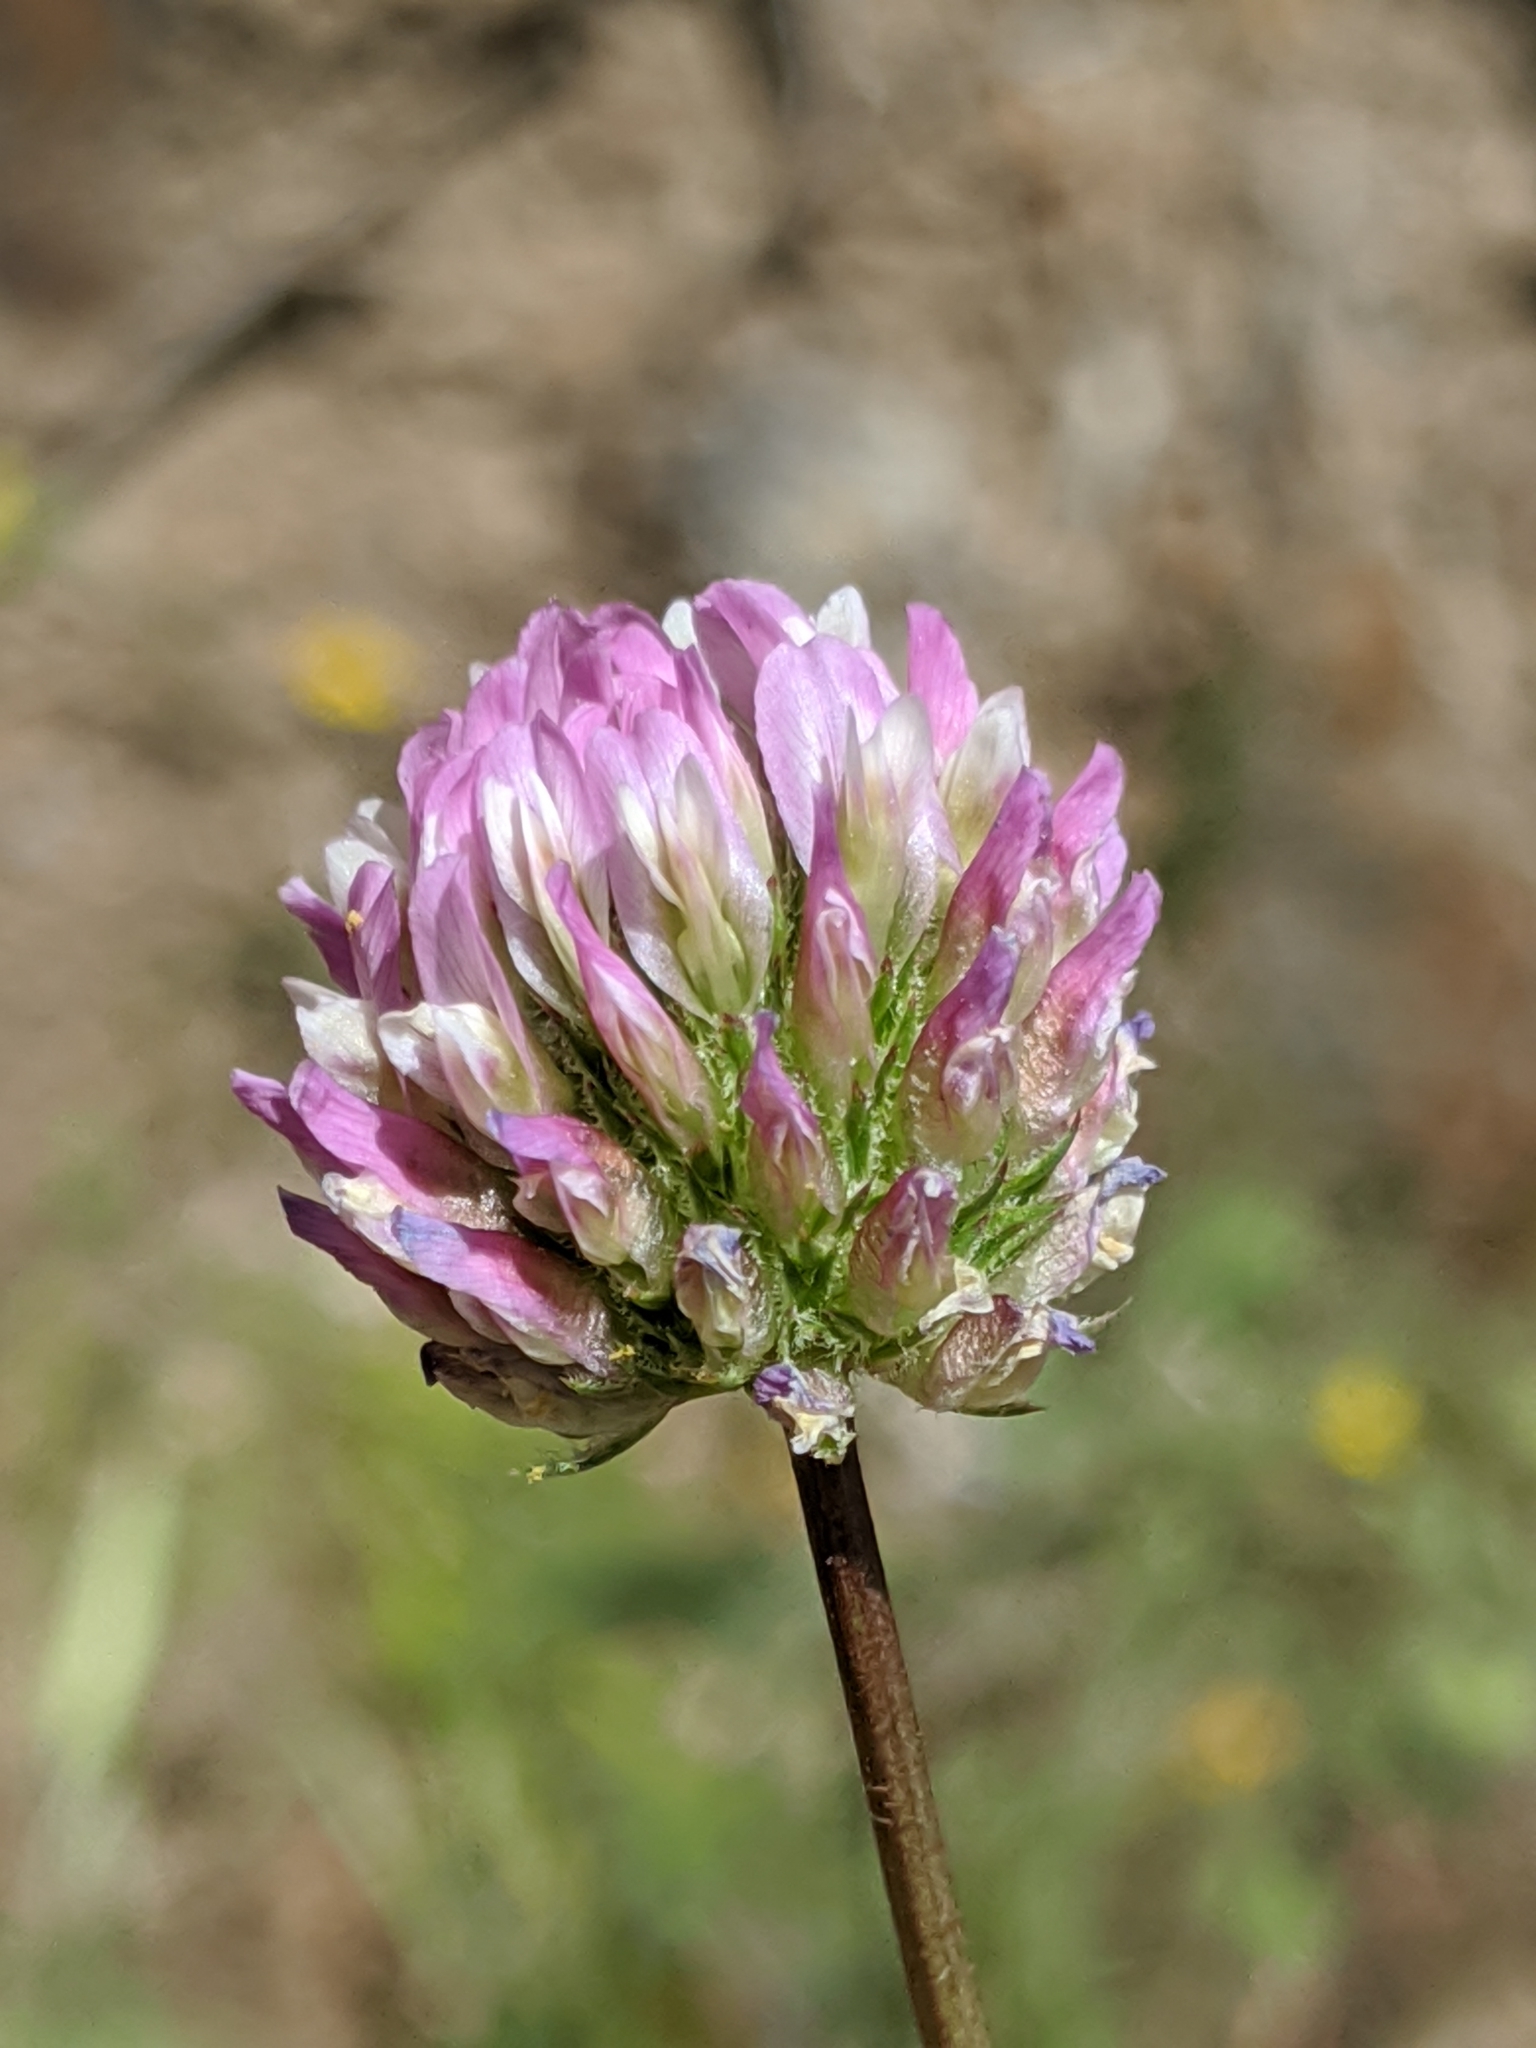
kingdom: Plantae
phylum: Tracheophyta
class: Magnoliopsida
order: Fabales
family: Fabaceae
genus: Trifolium
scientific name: Trifolium ciliolatum
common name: Foothill clover
